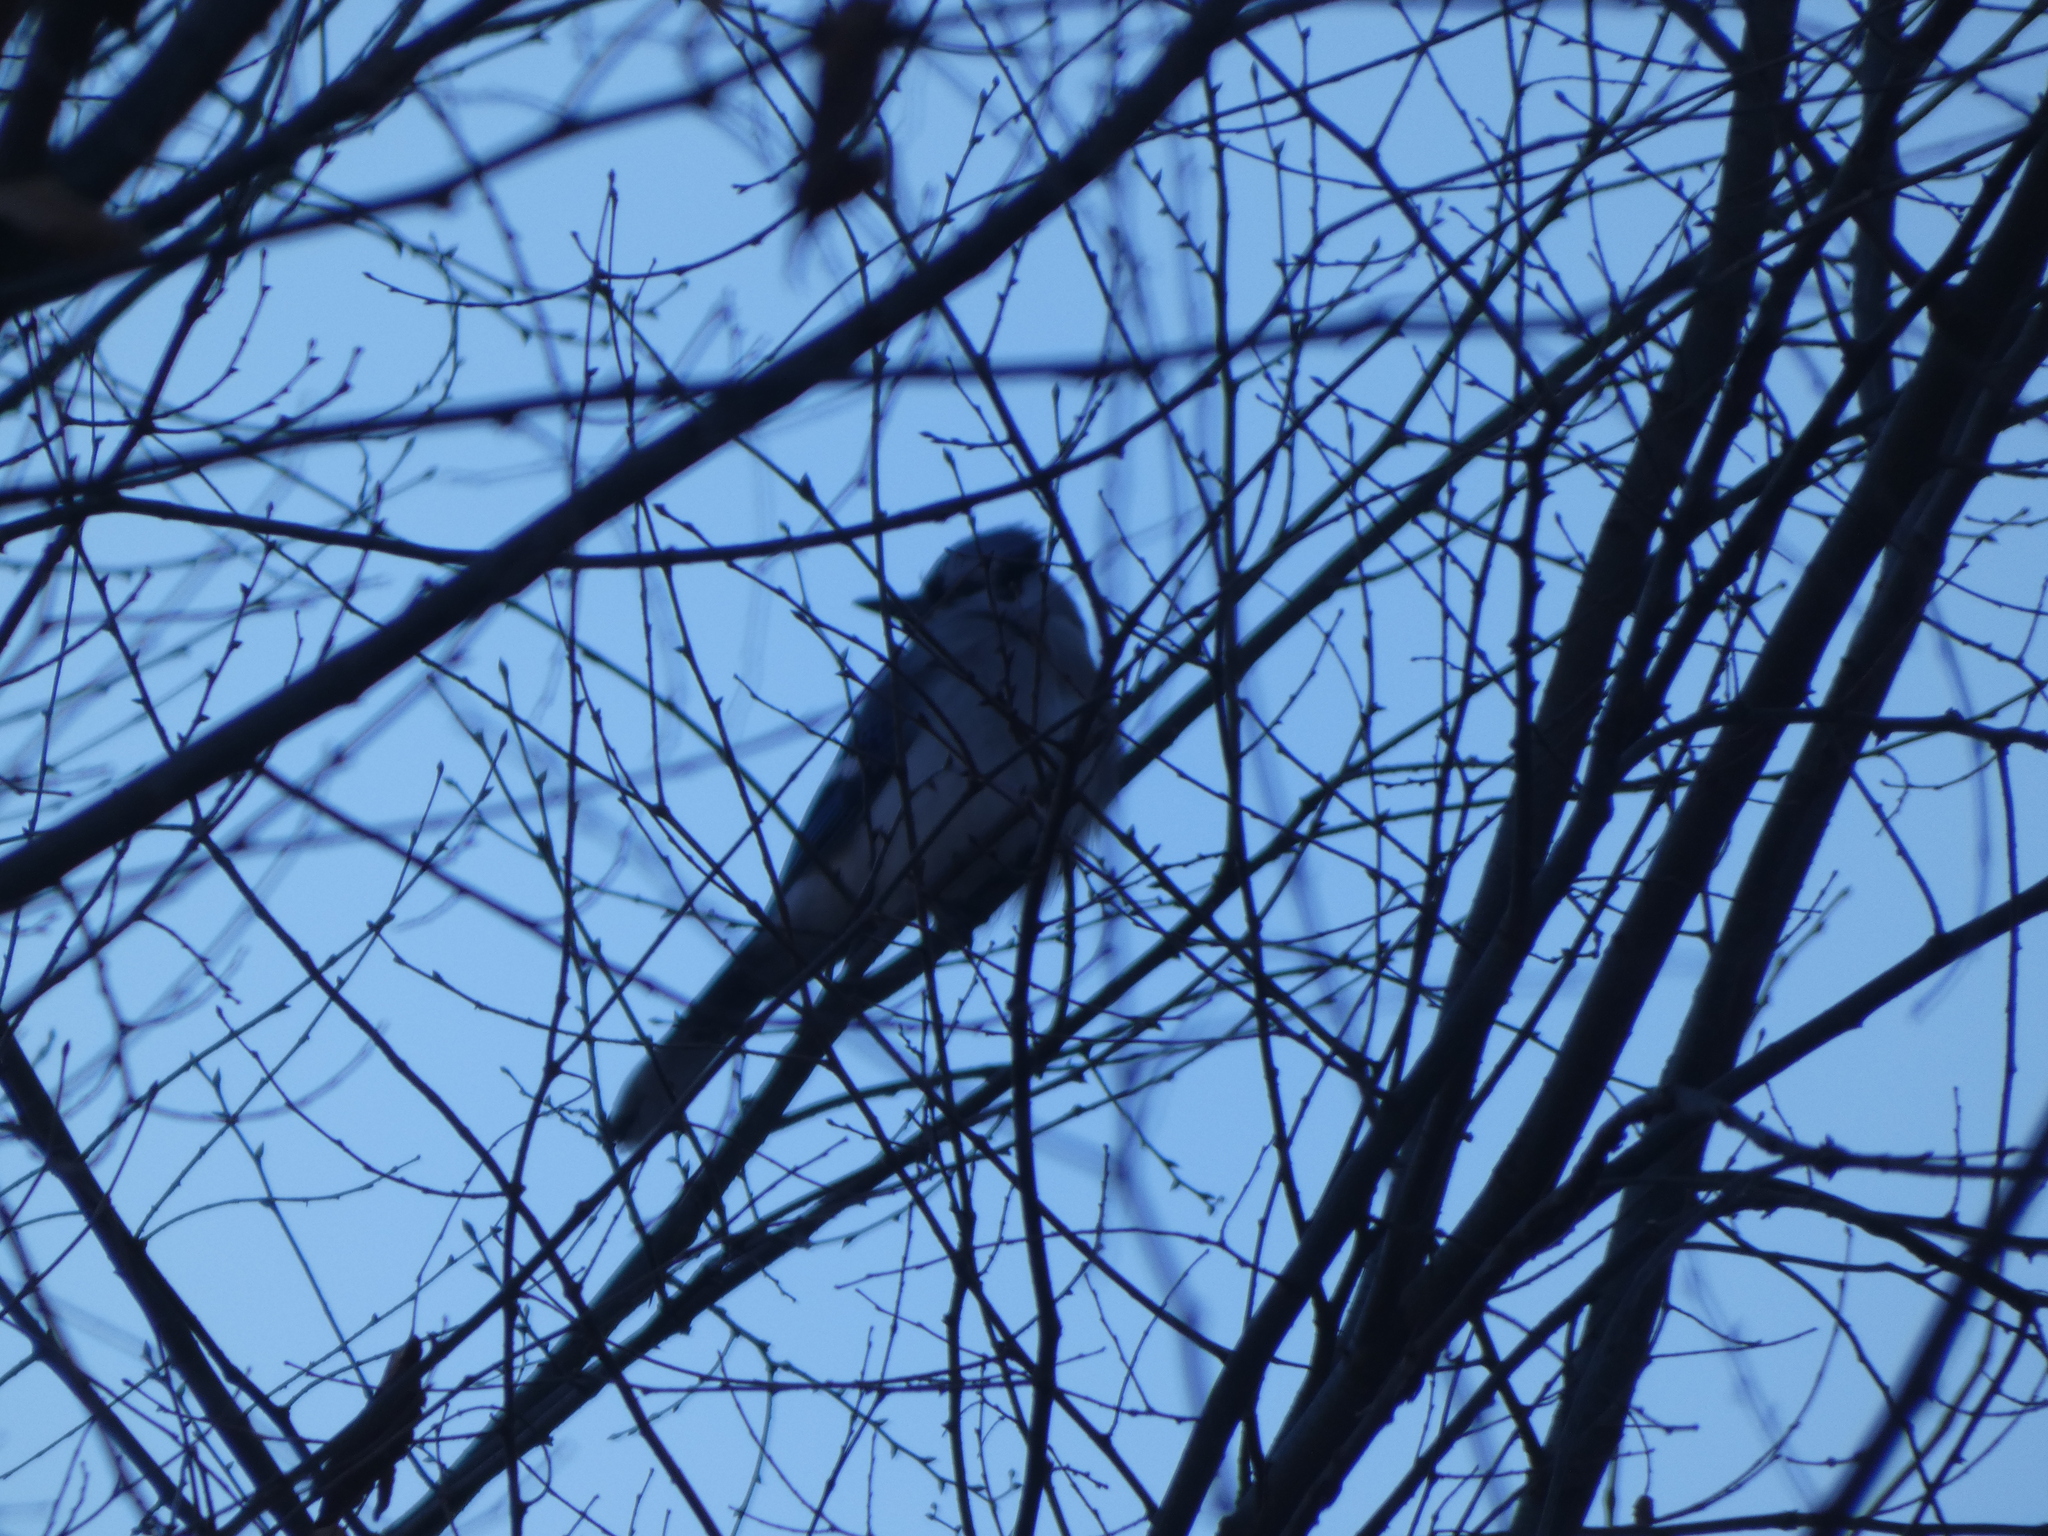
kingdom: Animalia
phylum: Chordata
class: Aves
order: Passeriformes
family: Corvidae
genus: Cyanocitta
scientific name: Cyanocitta cristata
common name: Blue jay
